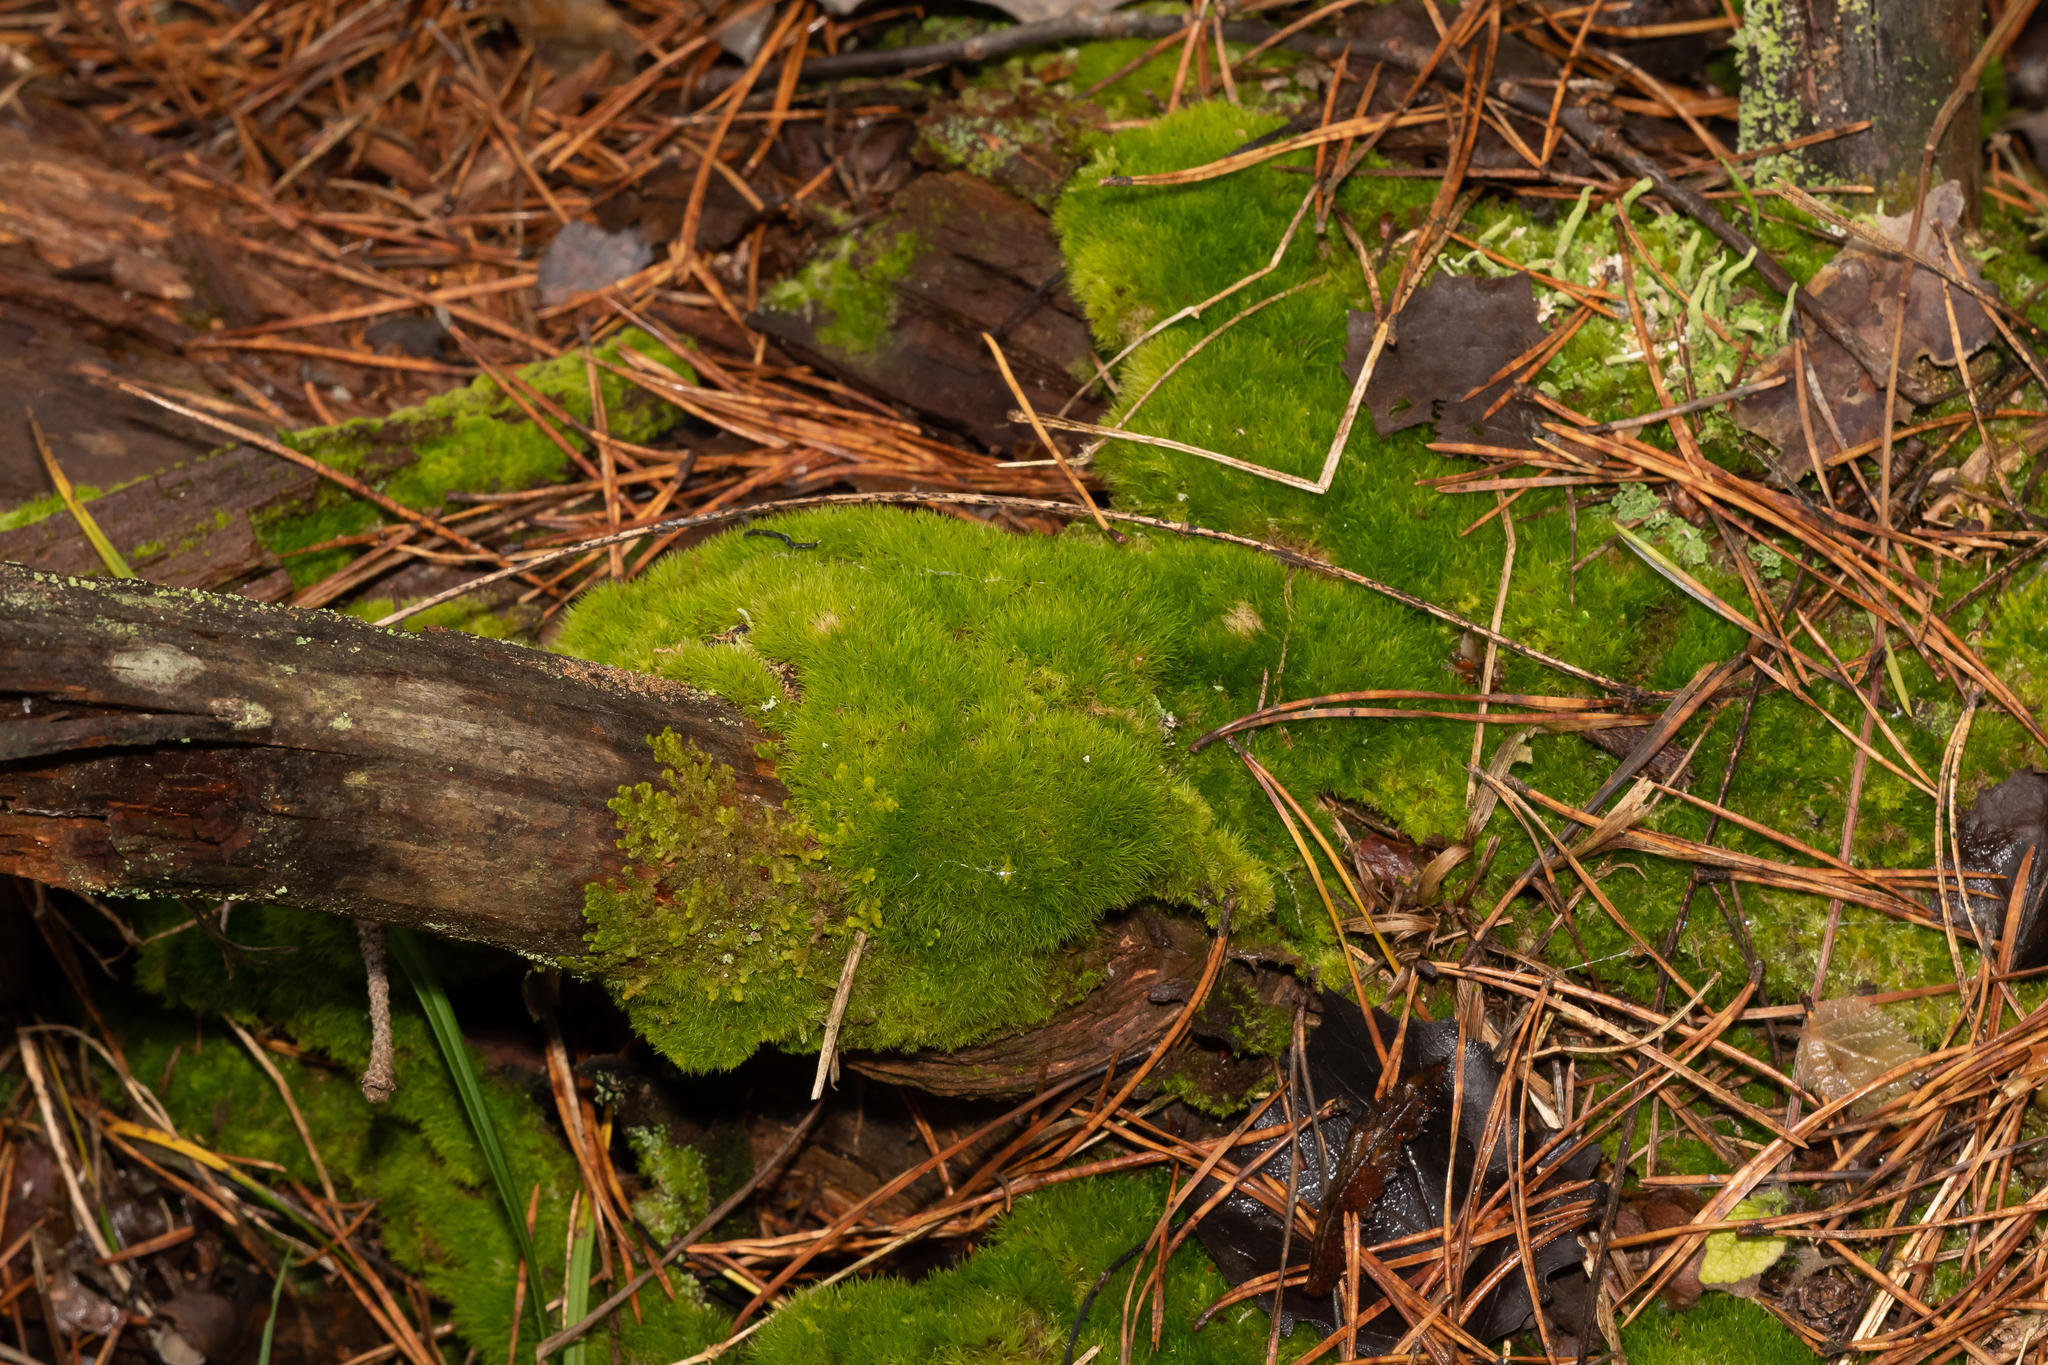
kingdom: Plantae
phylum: Bryophyta
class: Bryopsida
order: Dicranales
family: Dicranaceae
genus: Orthodicranum
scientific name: Orthodicranum montanum
